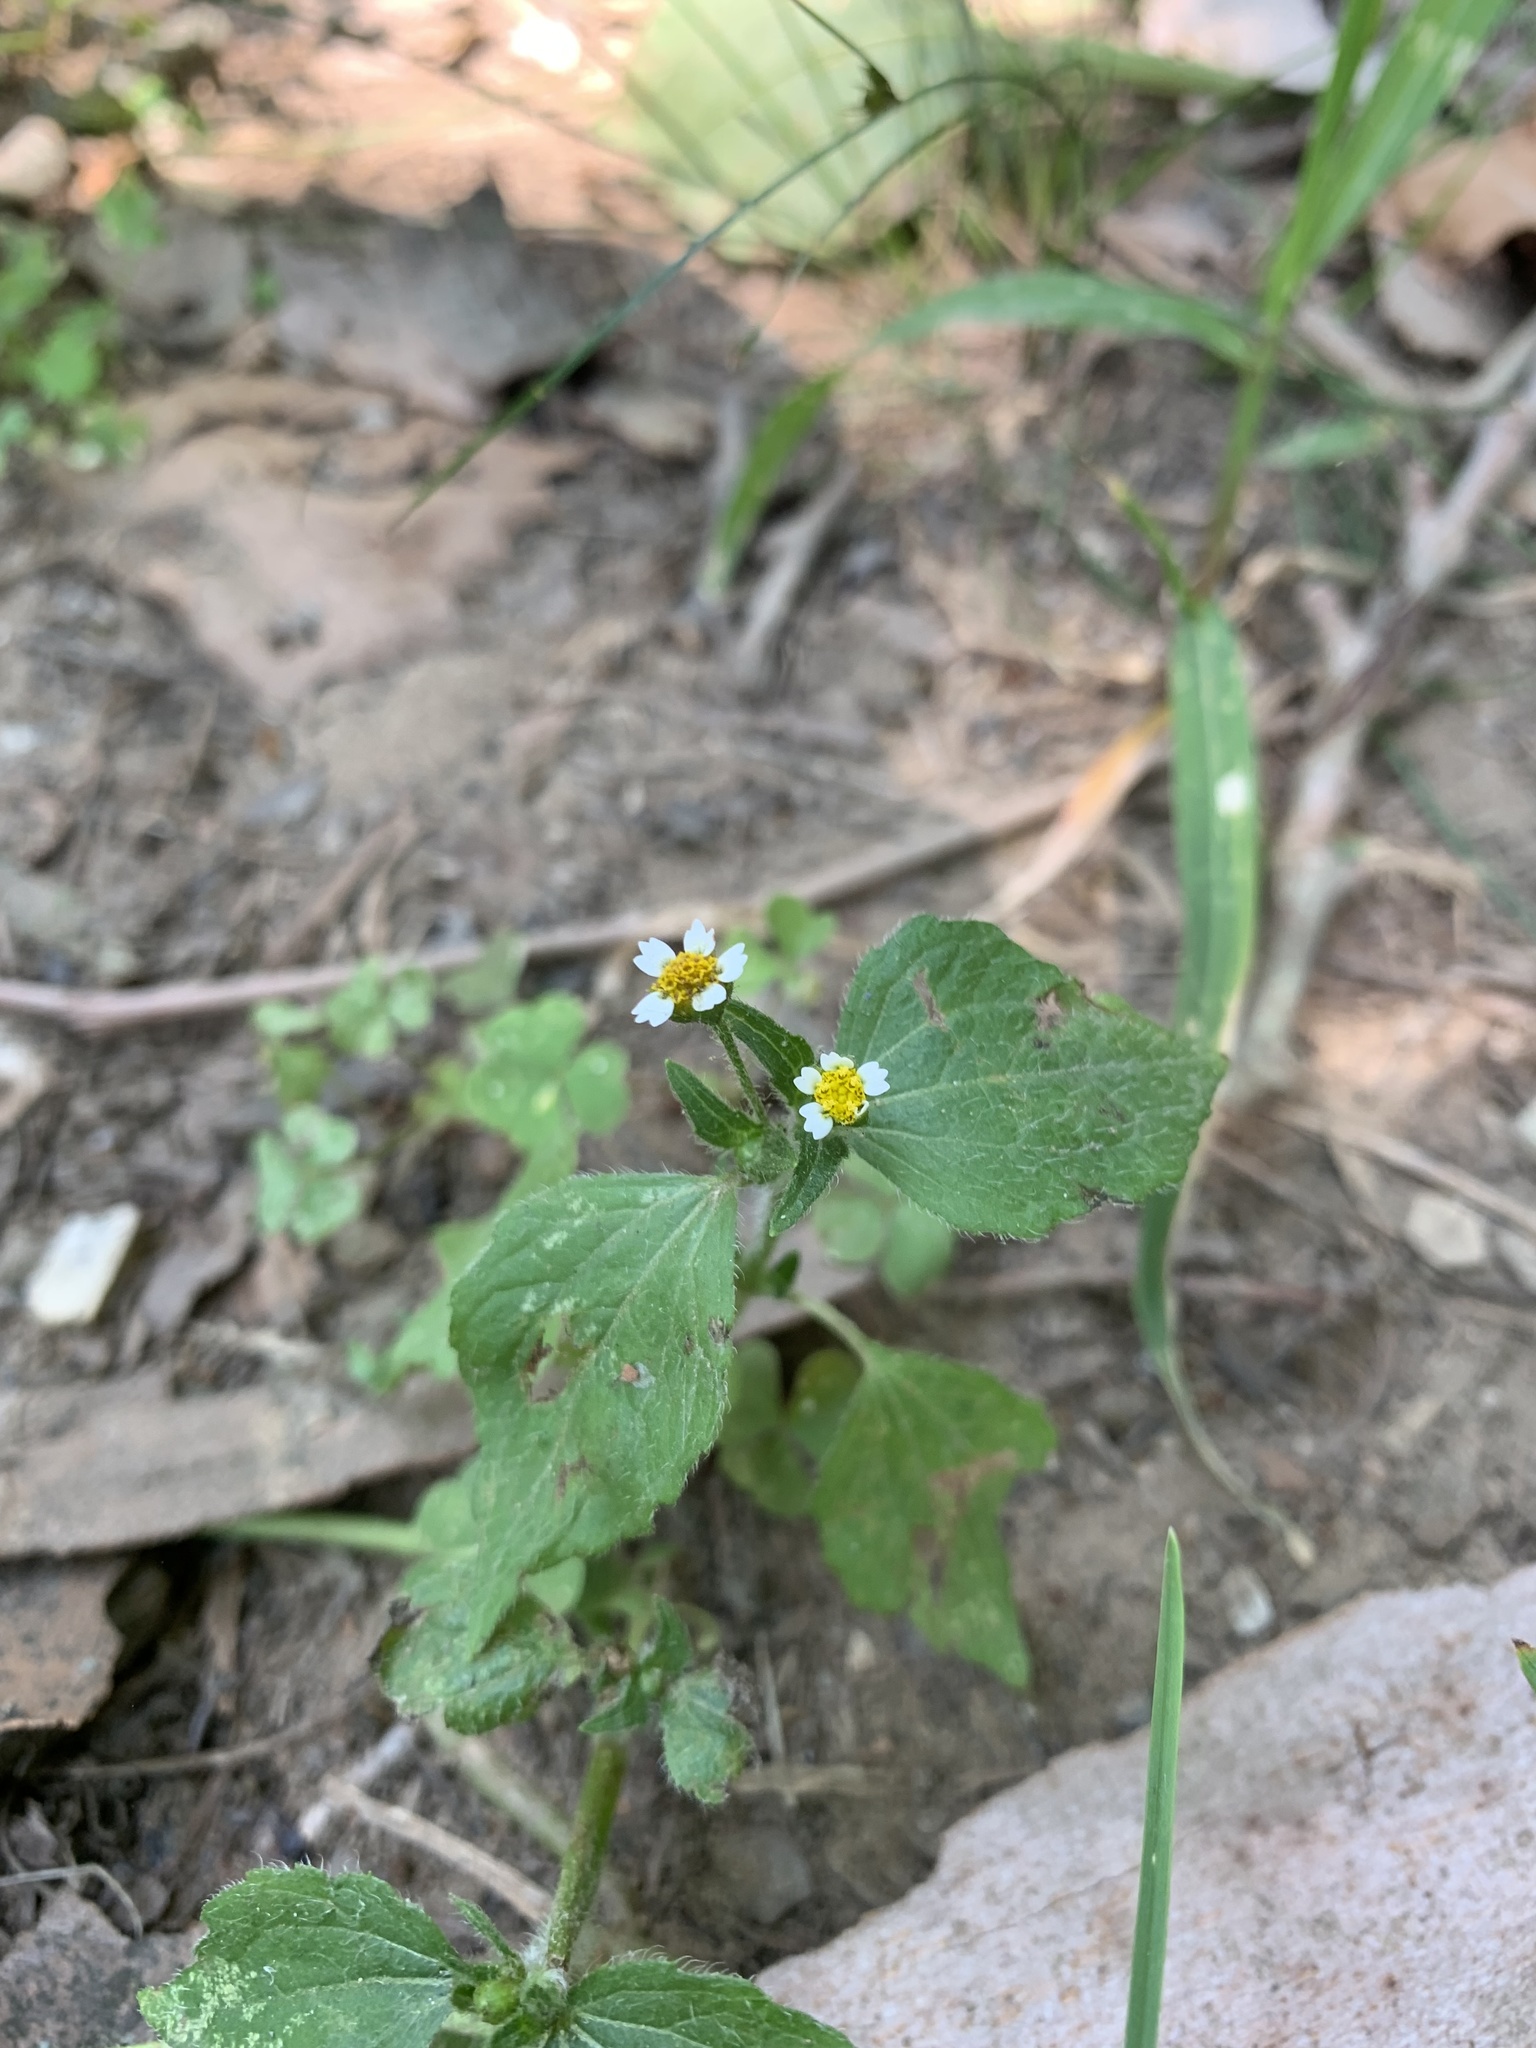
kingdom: Plantae
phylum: Tracheophyta
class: Magnoliopsida
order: Asterales
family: Asteraceae
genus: Galinsoga
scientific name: Galinsoga quadriradiata
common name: Shaggy soldier
